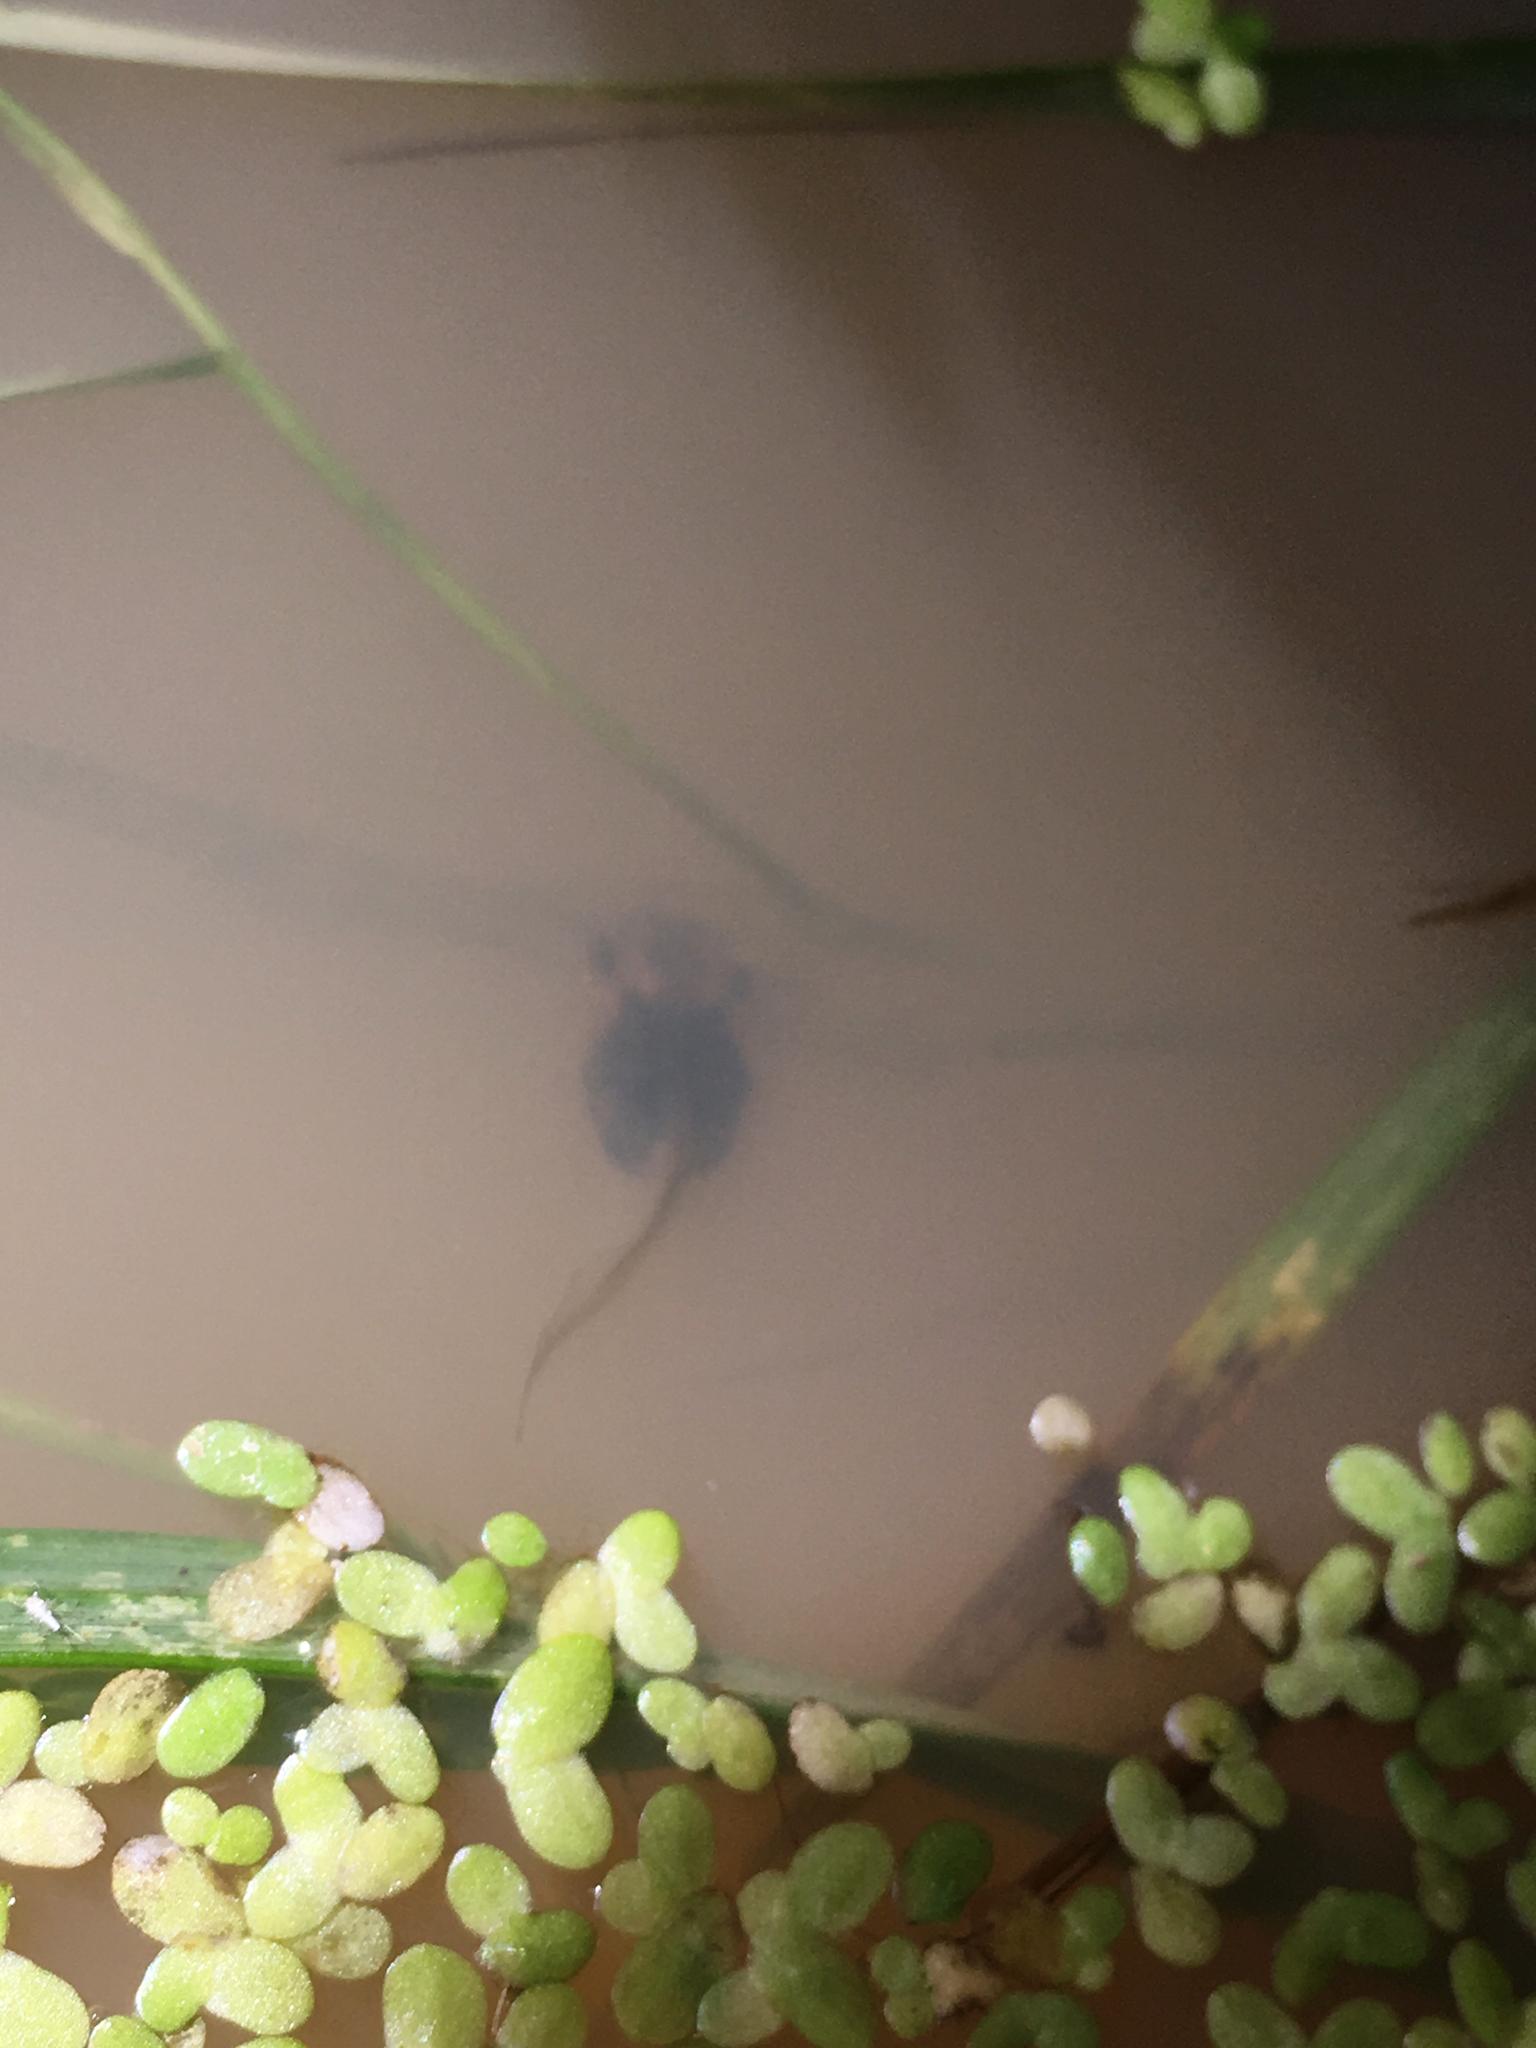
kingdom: Animalia
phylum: Chordata
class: Amphibia
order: Anura
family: Pelodryadidae
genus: Litoria
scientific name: Litoria ewingii
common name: Southern brown tree frog
